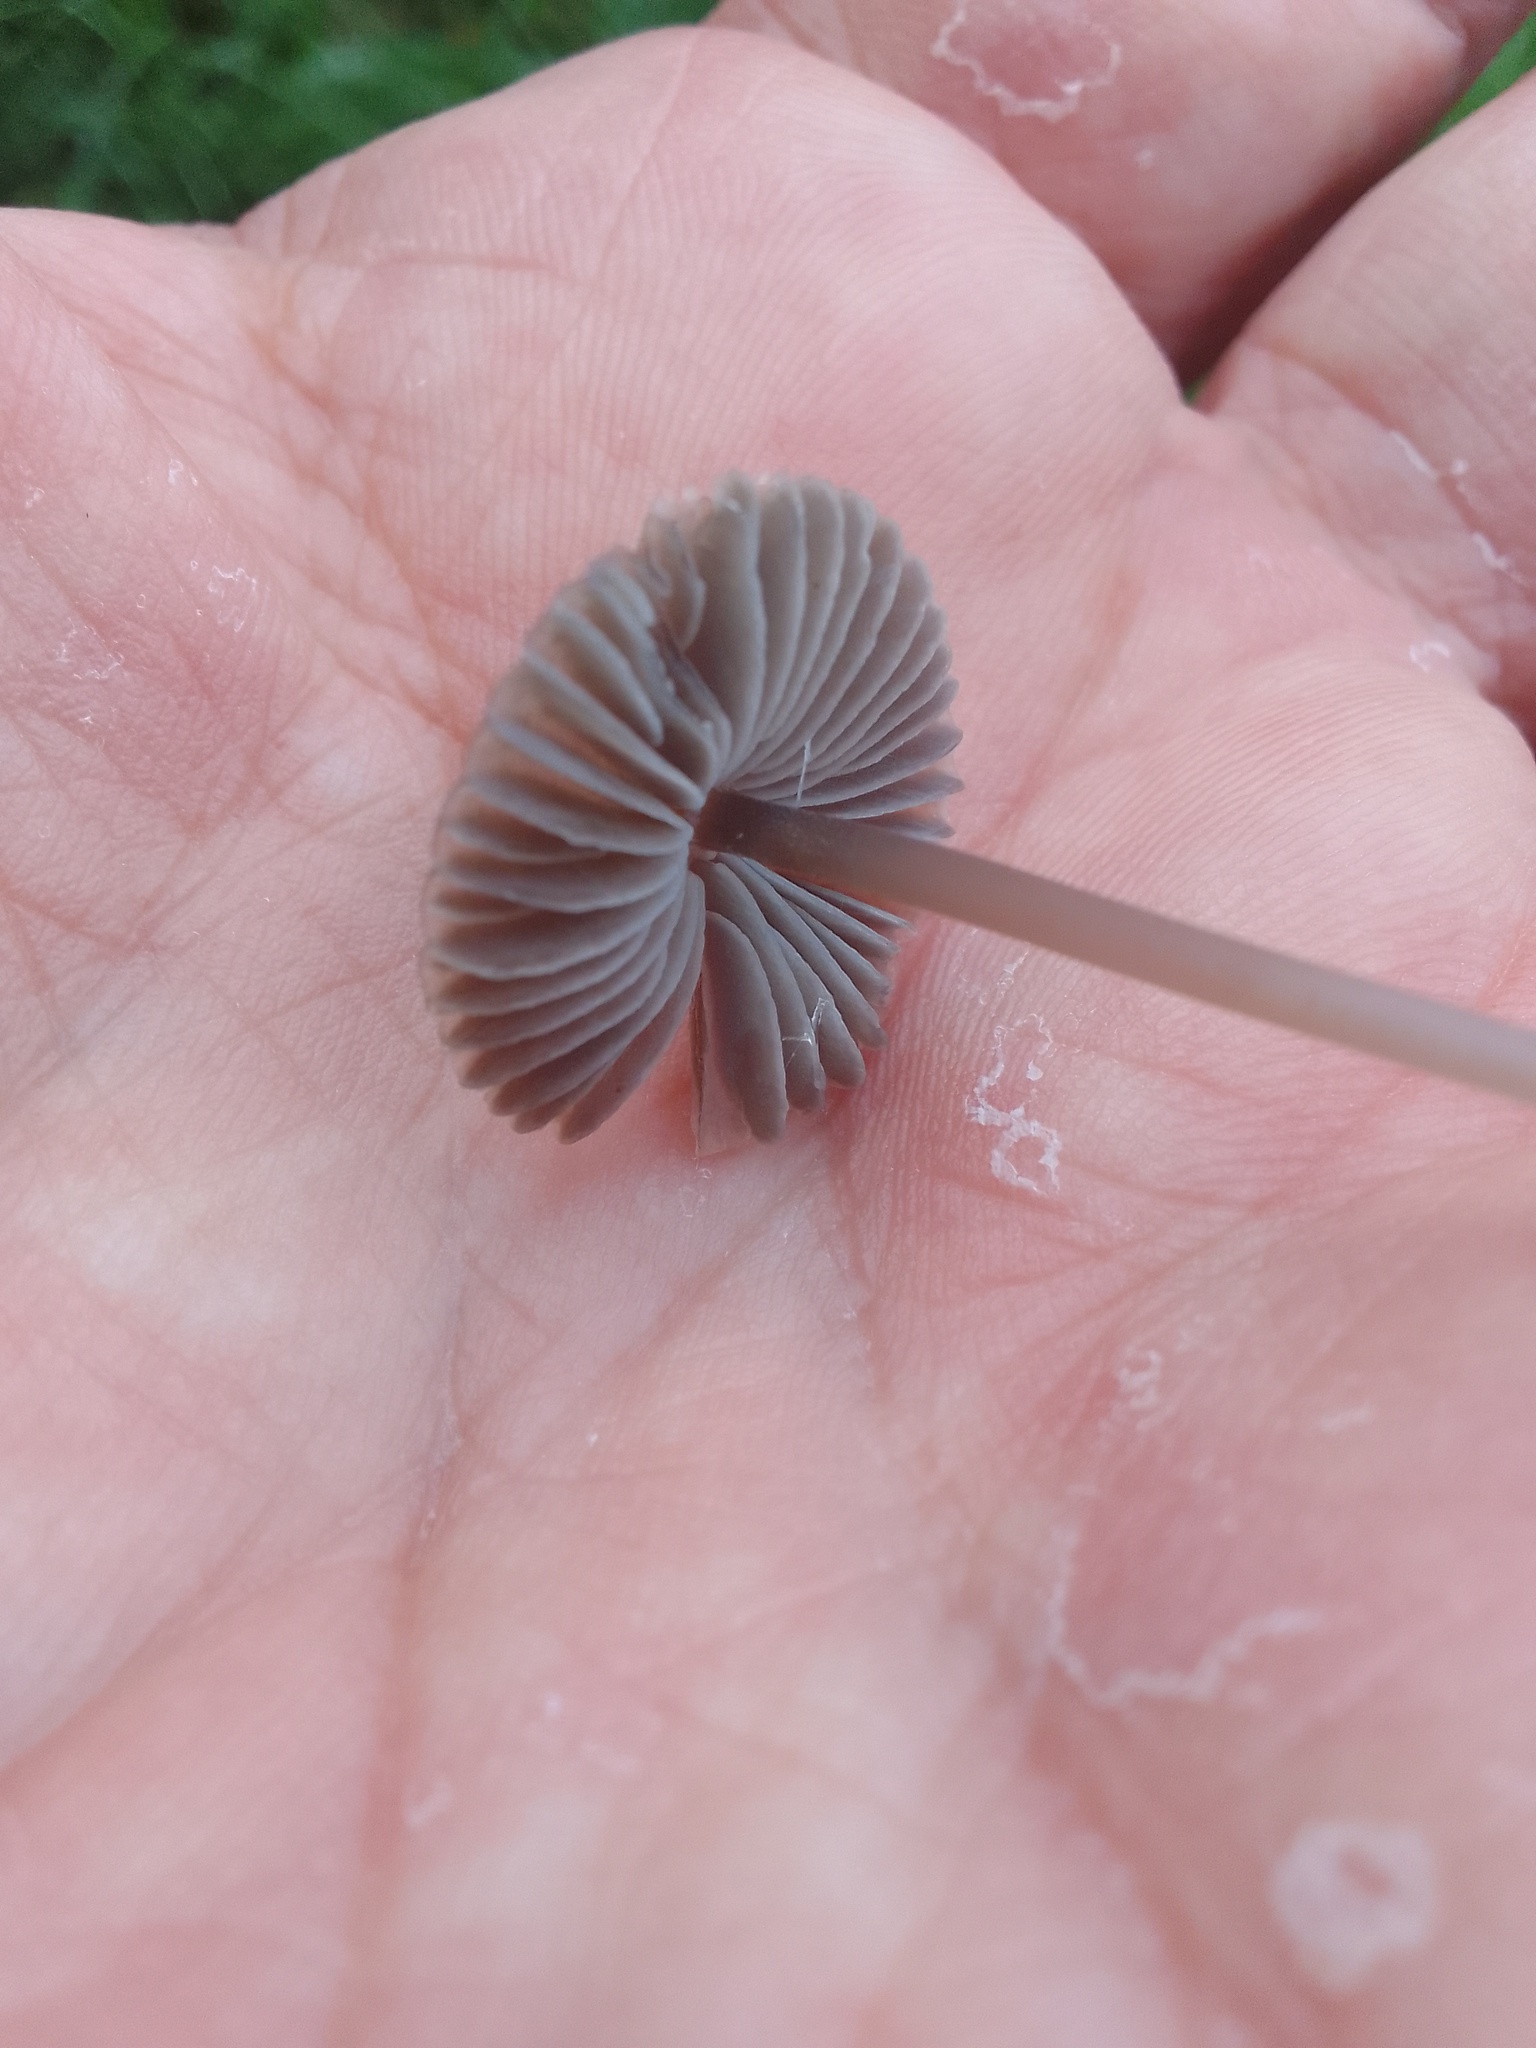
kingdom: Fungi
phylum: Basidiomycota
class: Agaricomycetes
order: Agaricales
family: Mycenaceae
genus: Mycena
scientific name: Mycena galopus
